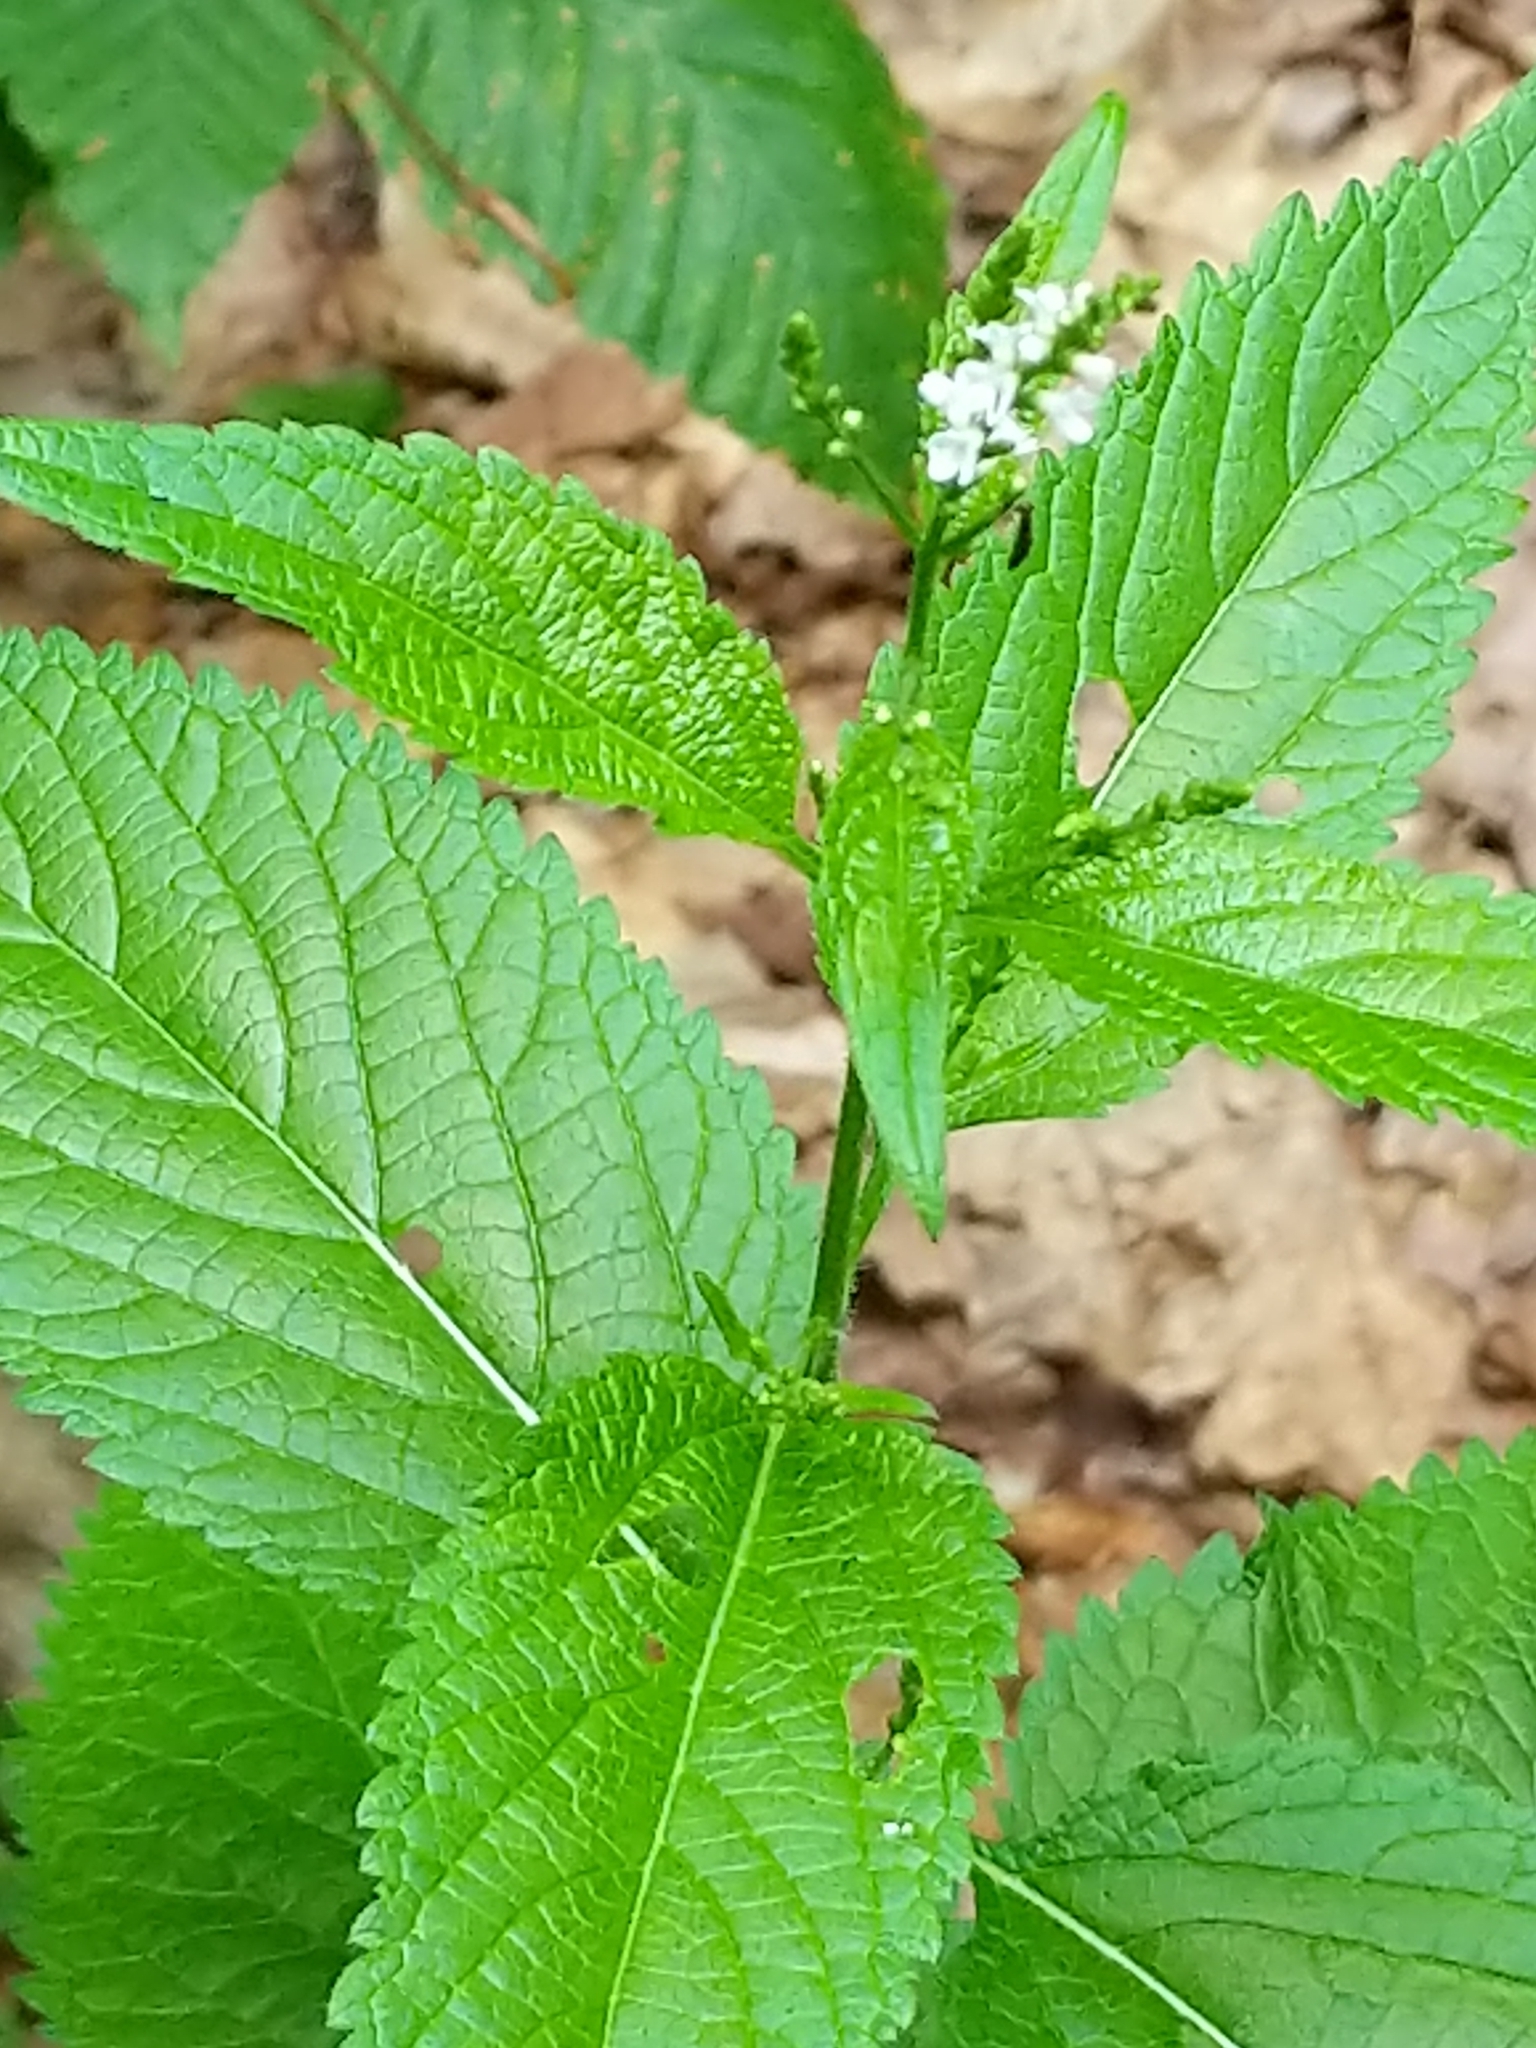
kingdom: Plantae
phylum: Tracheophyta
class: Magnoliopsida
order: Lamiales
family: Verbenaceae
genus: Verbena
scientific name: Verbena urticifolia
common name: Nettle-leaved vervain
